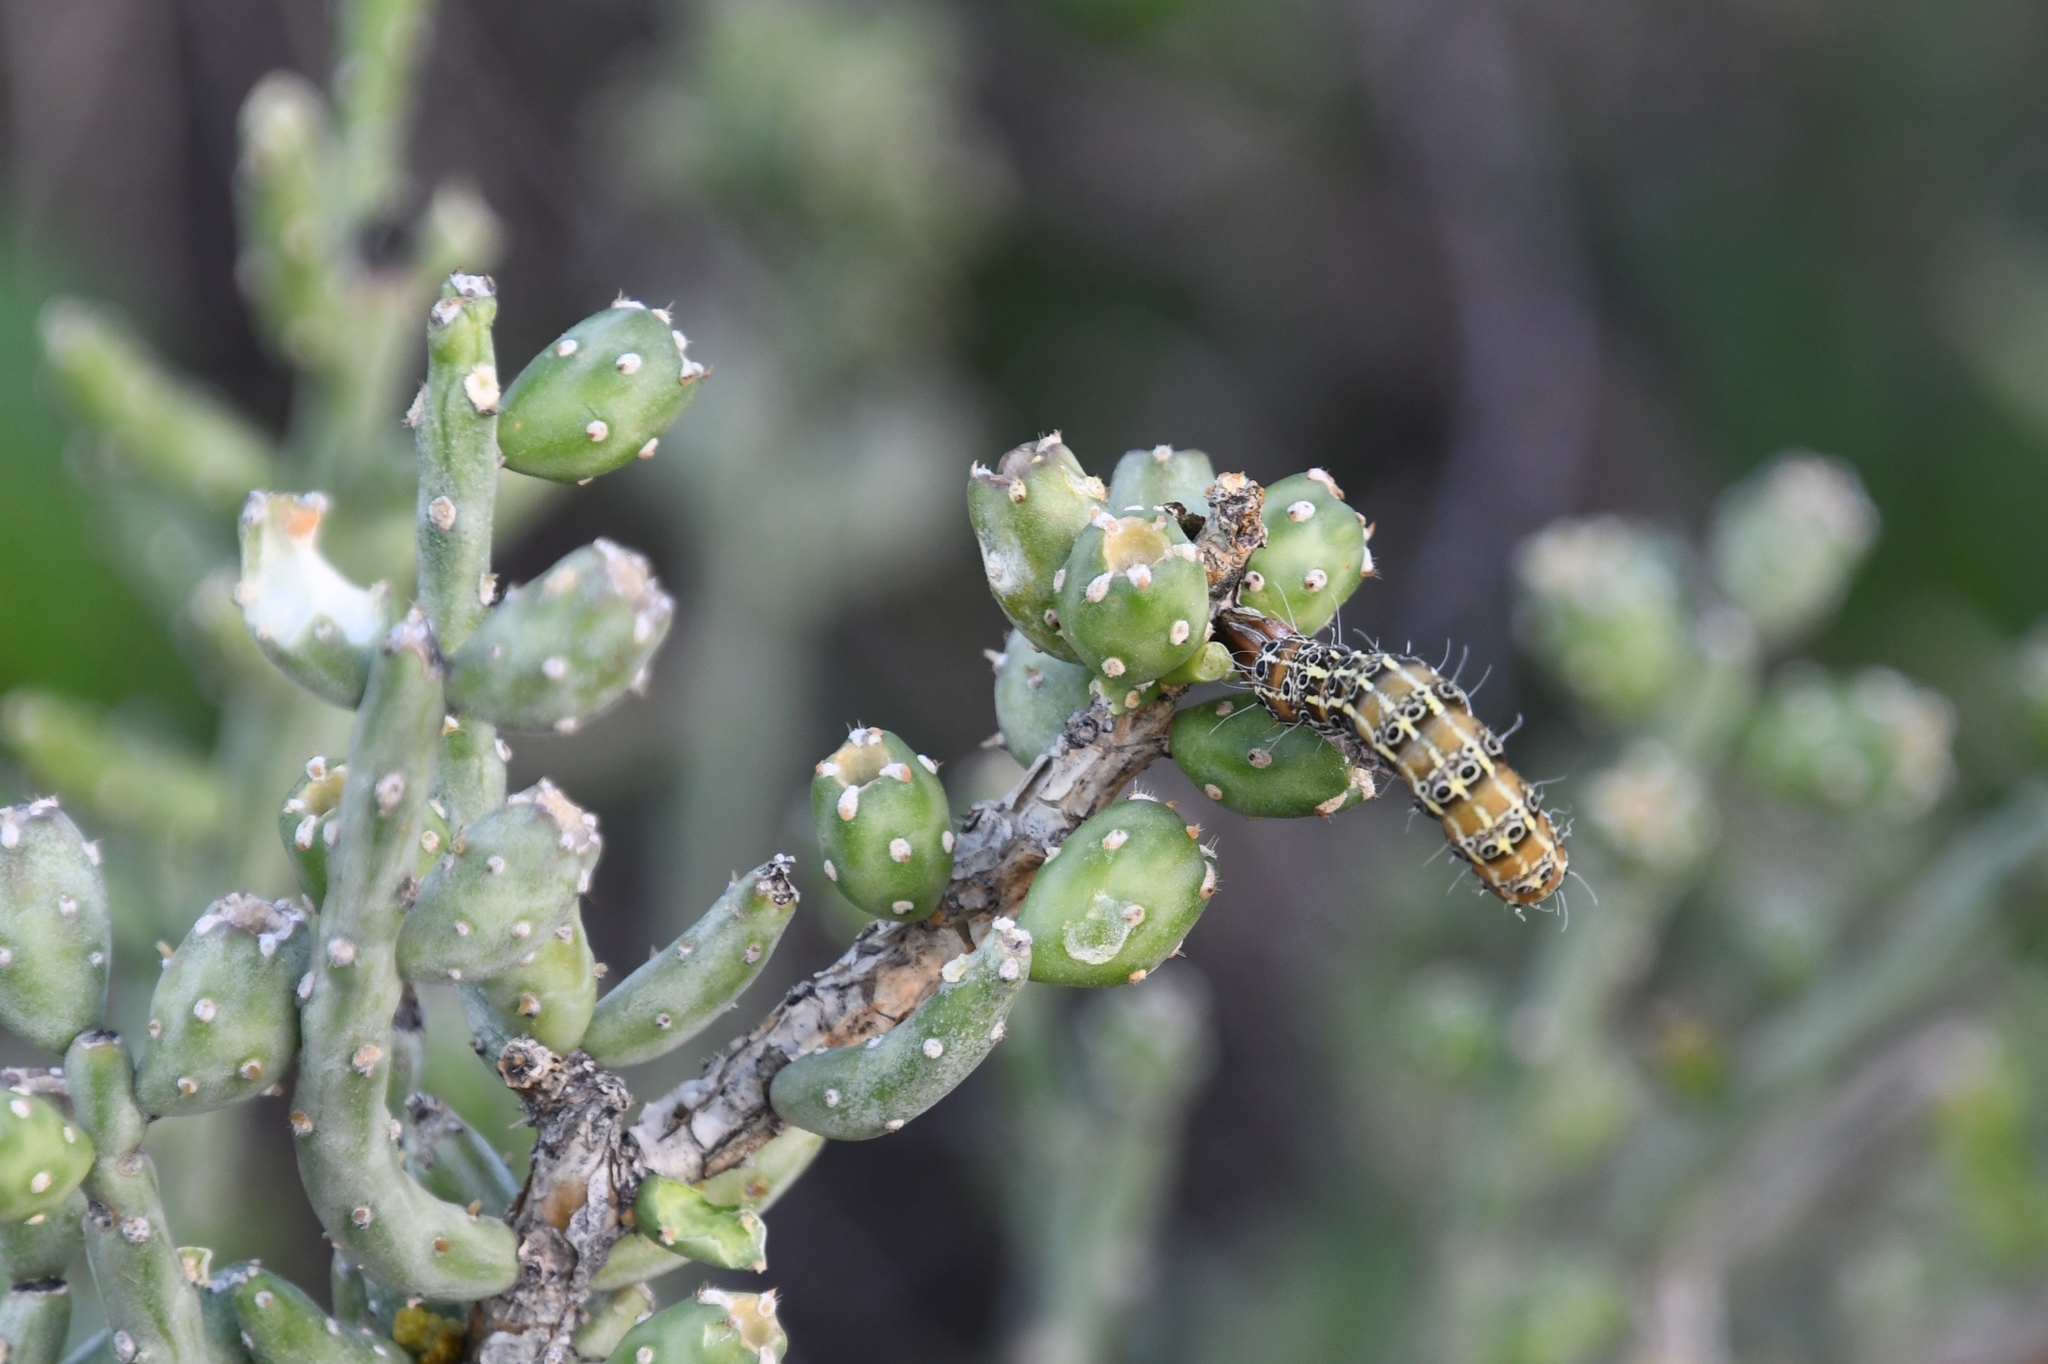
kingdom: Animalia
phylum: Arthropoda
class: Insecta
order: Lepidoptera
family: Noctuidae
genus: Euscirrhopterus
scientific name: Euscirrhopterus cosyra
